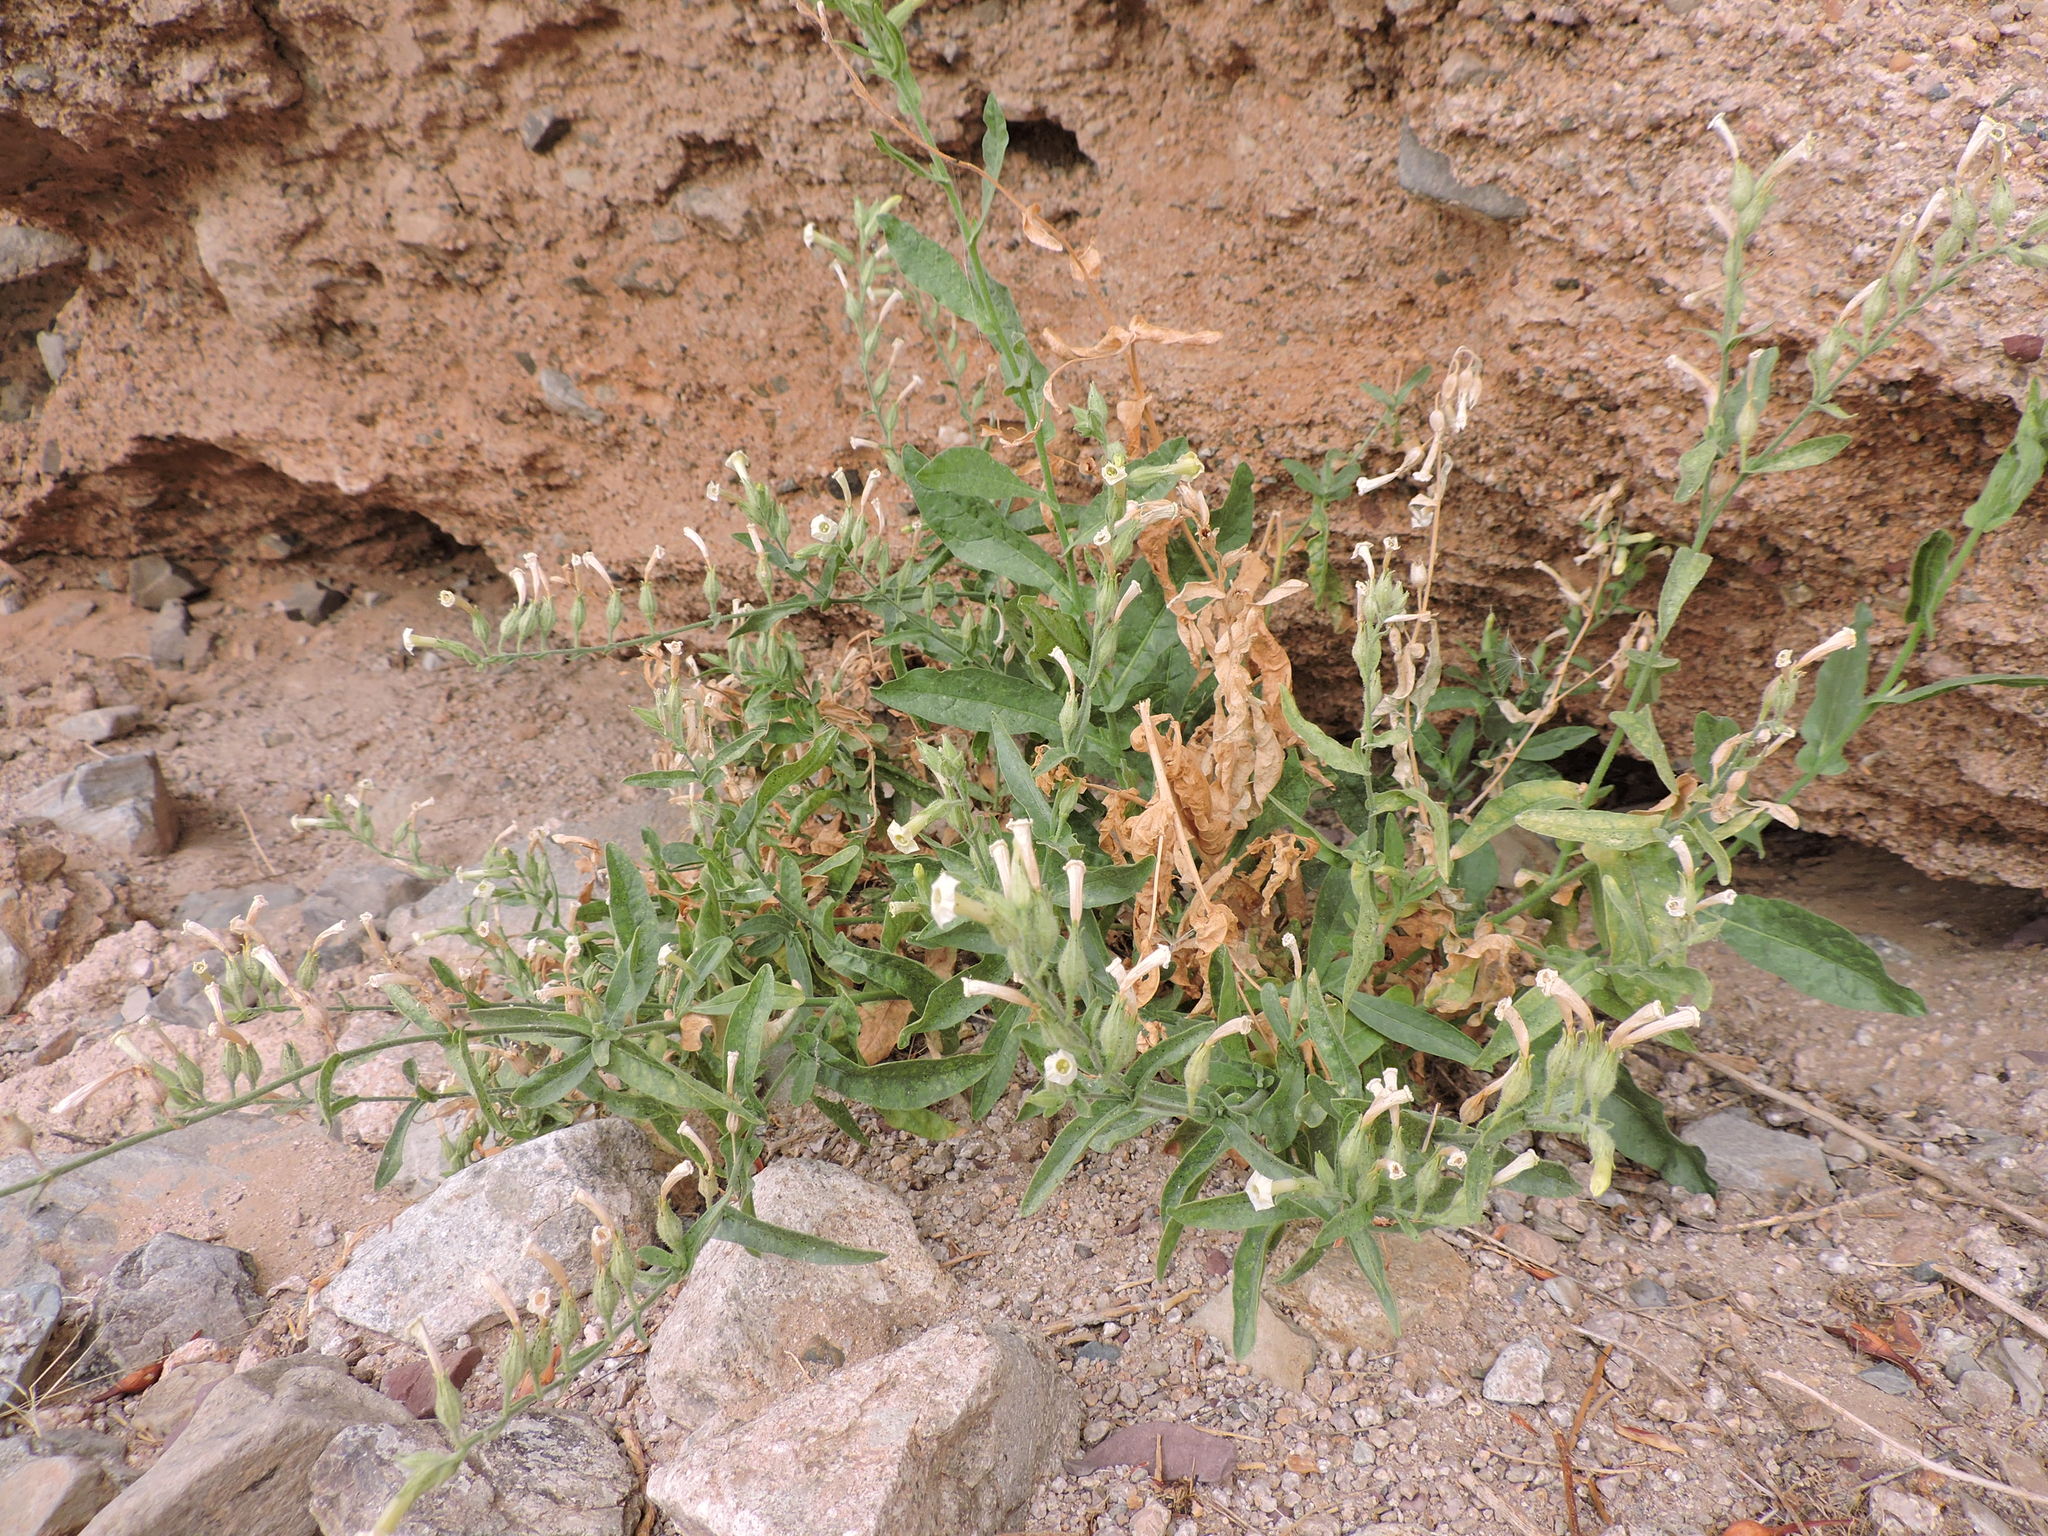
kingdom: Plantae
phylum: Tracheophyta
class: Magnoliopsida
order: Solanales
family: Solanaceae
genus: Nicotiana
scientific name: Nicotiana obtusifolia
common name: Desert tobacco
